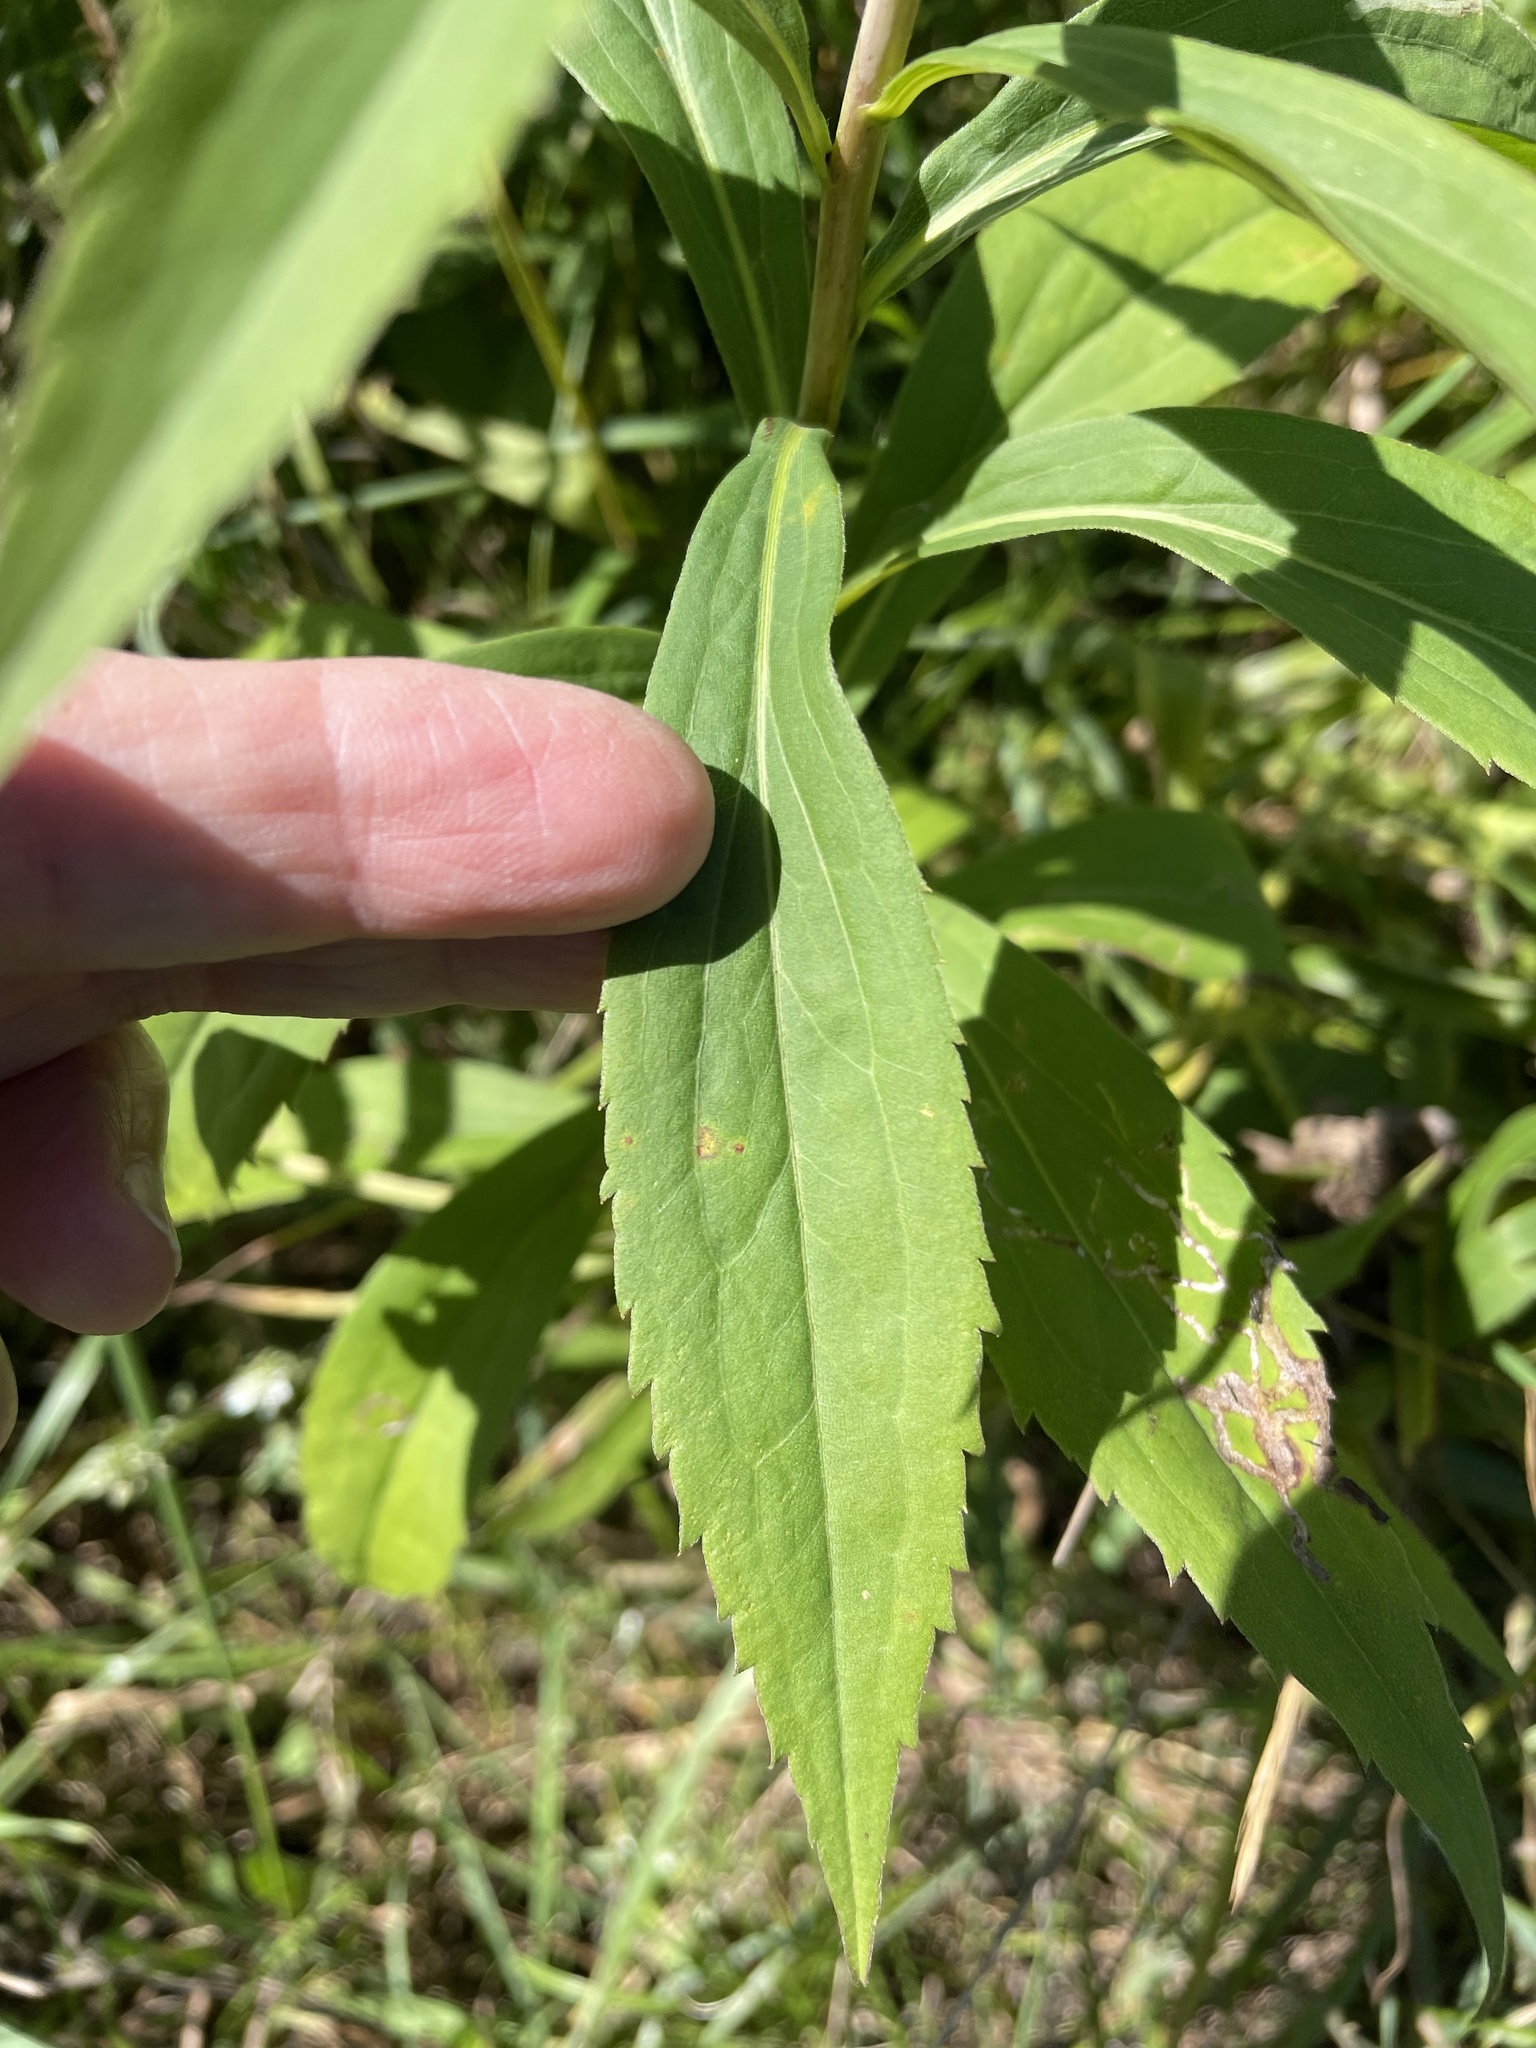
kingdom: Plantae
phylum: Tracheophyta
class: Magnoliopsida
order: Asterales
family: Asteraceae
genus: Solidago
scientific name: Solidago gigantea
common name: Giant goldenrod
